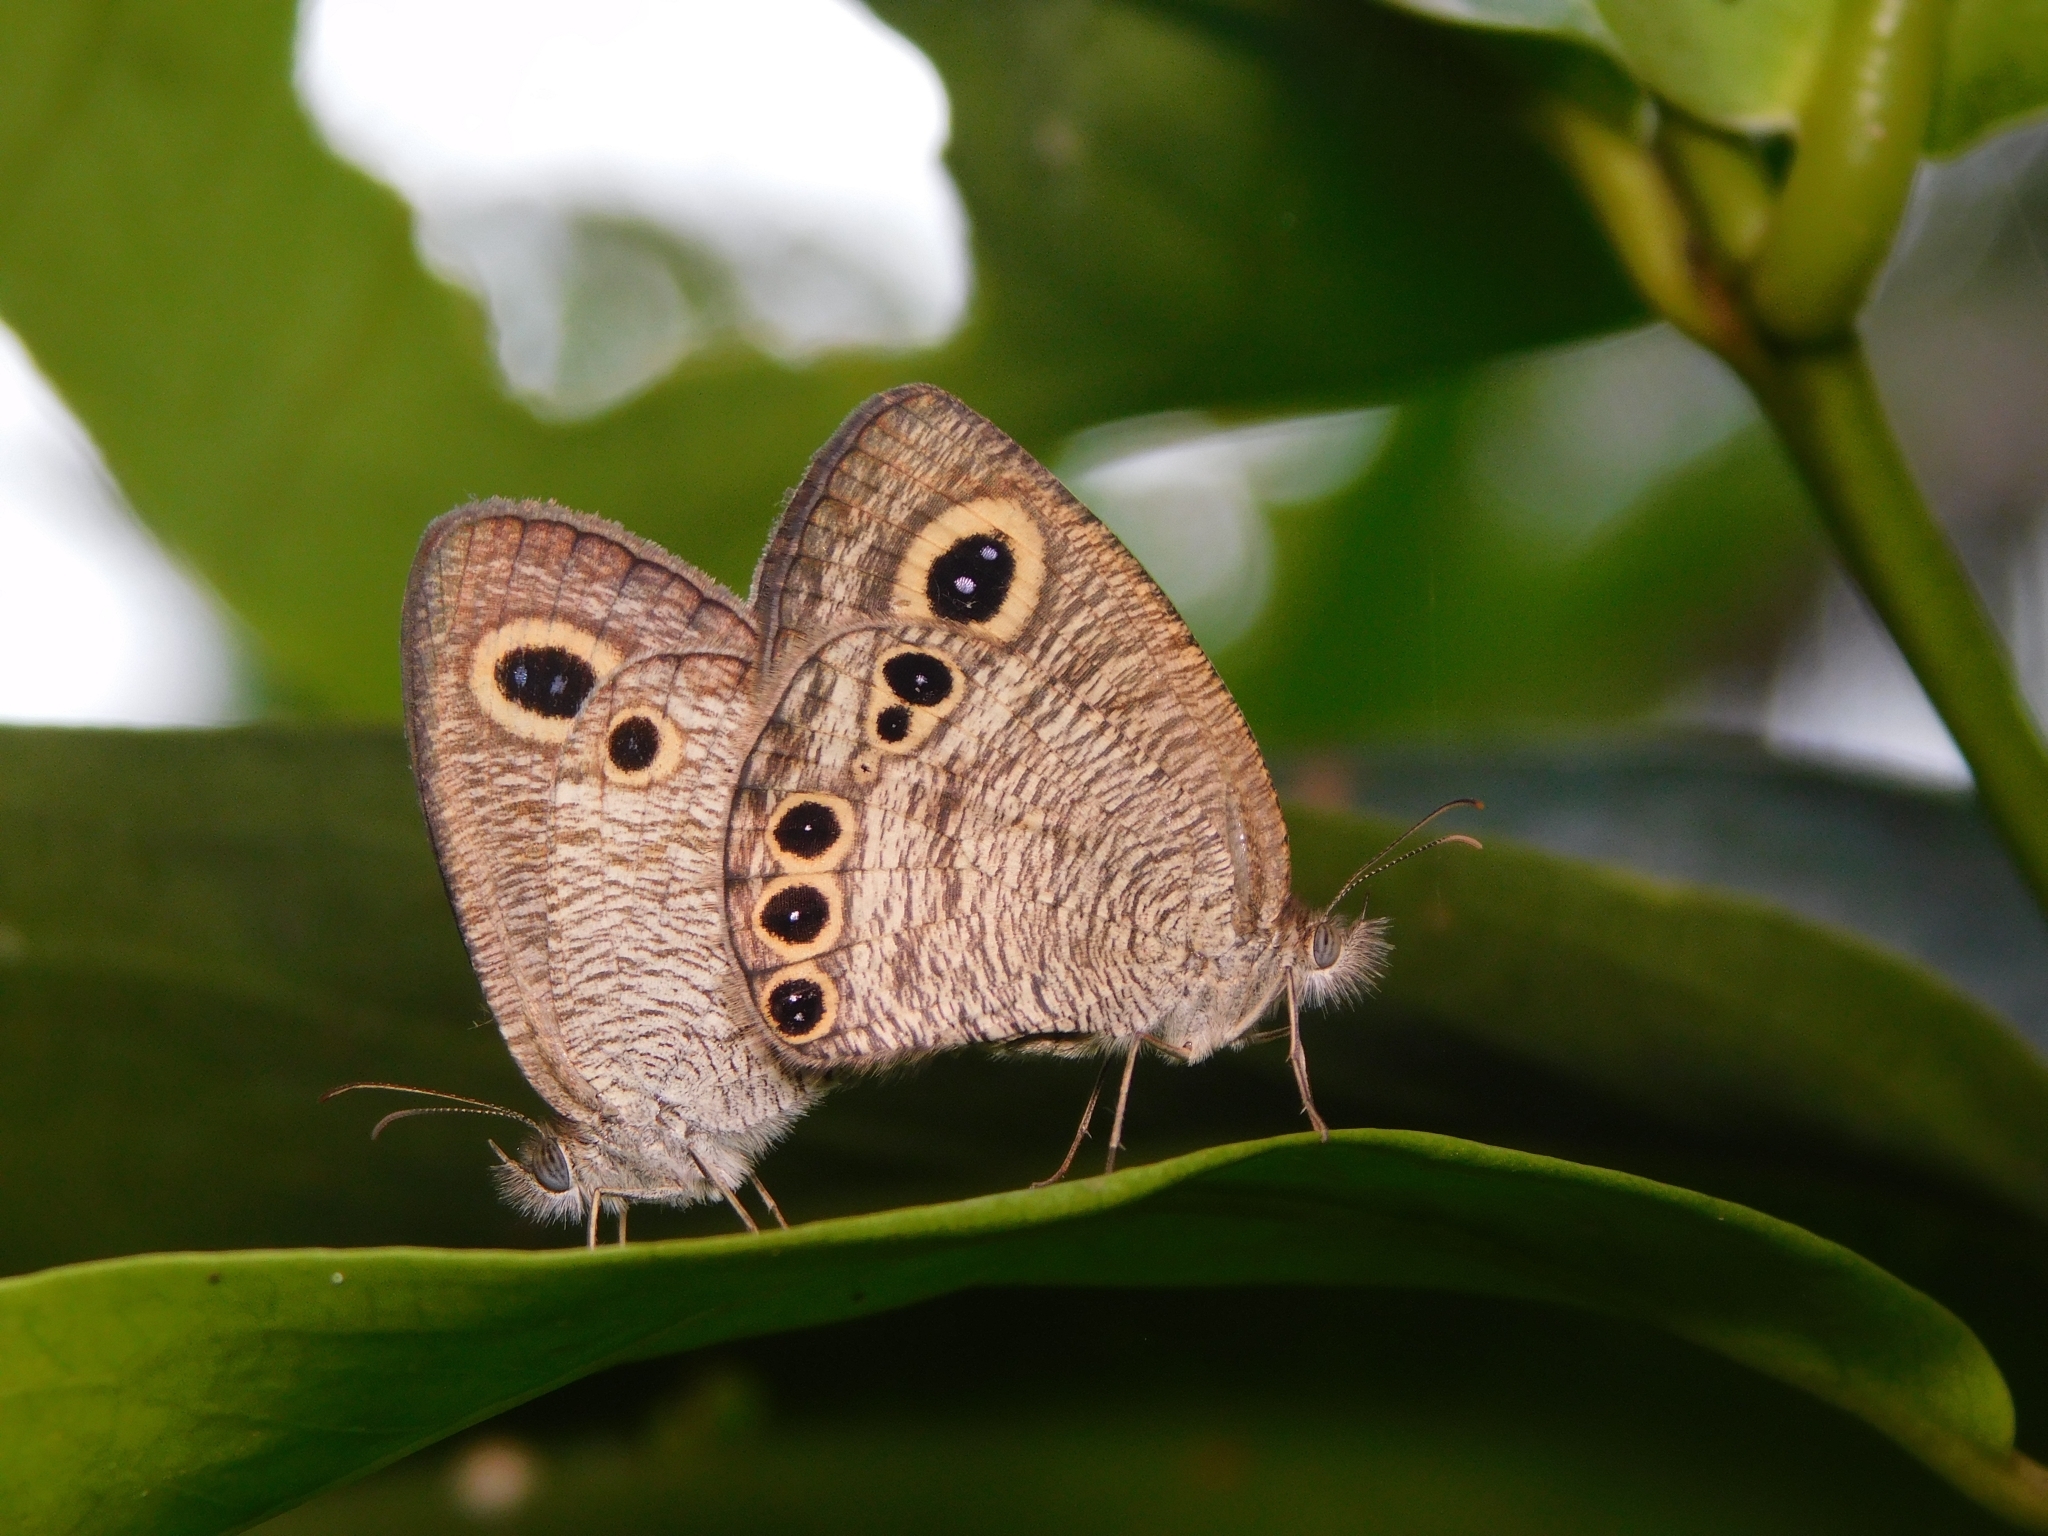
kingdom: Animalia
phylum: Arthropoda
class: Insecta
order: Lepidoptera
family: Nymphalidae
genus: Ypthima
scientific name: Ypthima huebneri
